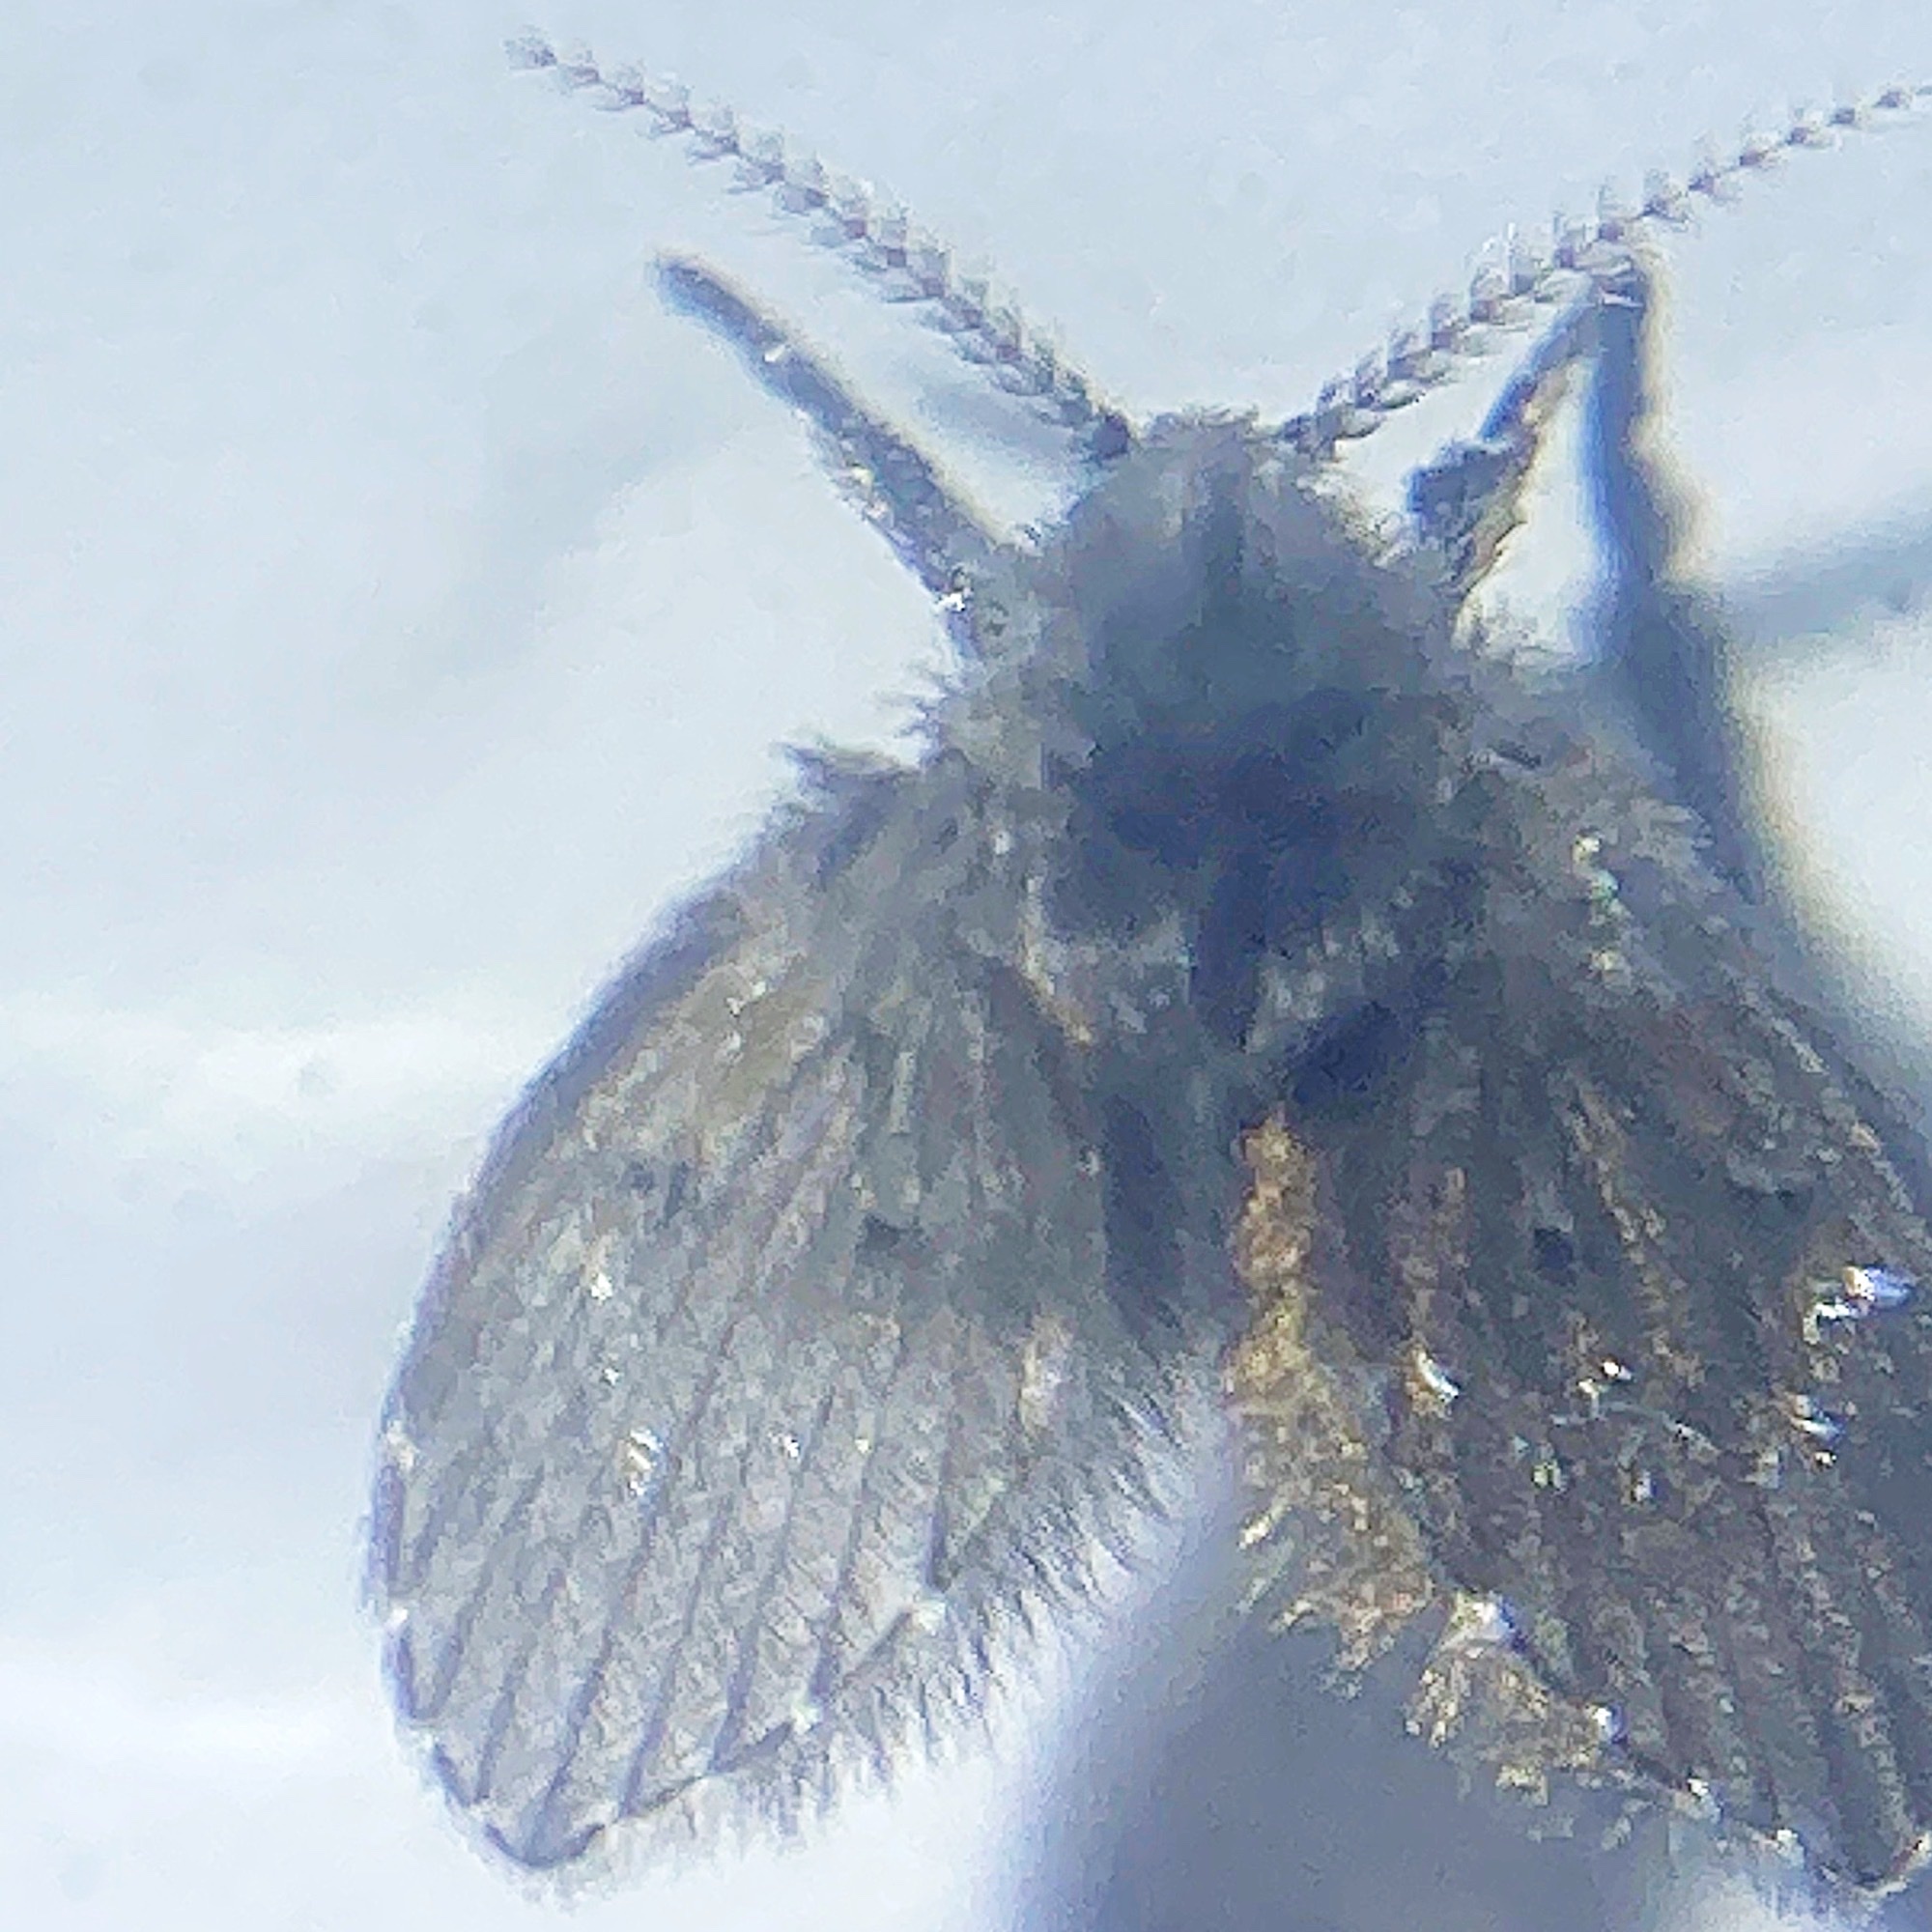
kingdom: Animalia
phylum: Arthropoda
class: Insecta
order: Diptera
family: Psychodidae
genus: Clogmia
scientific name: Clogmia albipunctatus
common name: White-spotted moth fly
